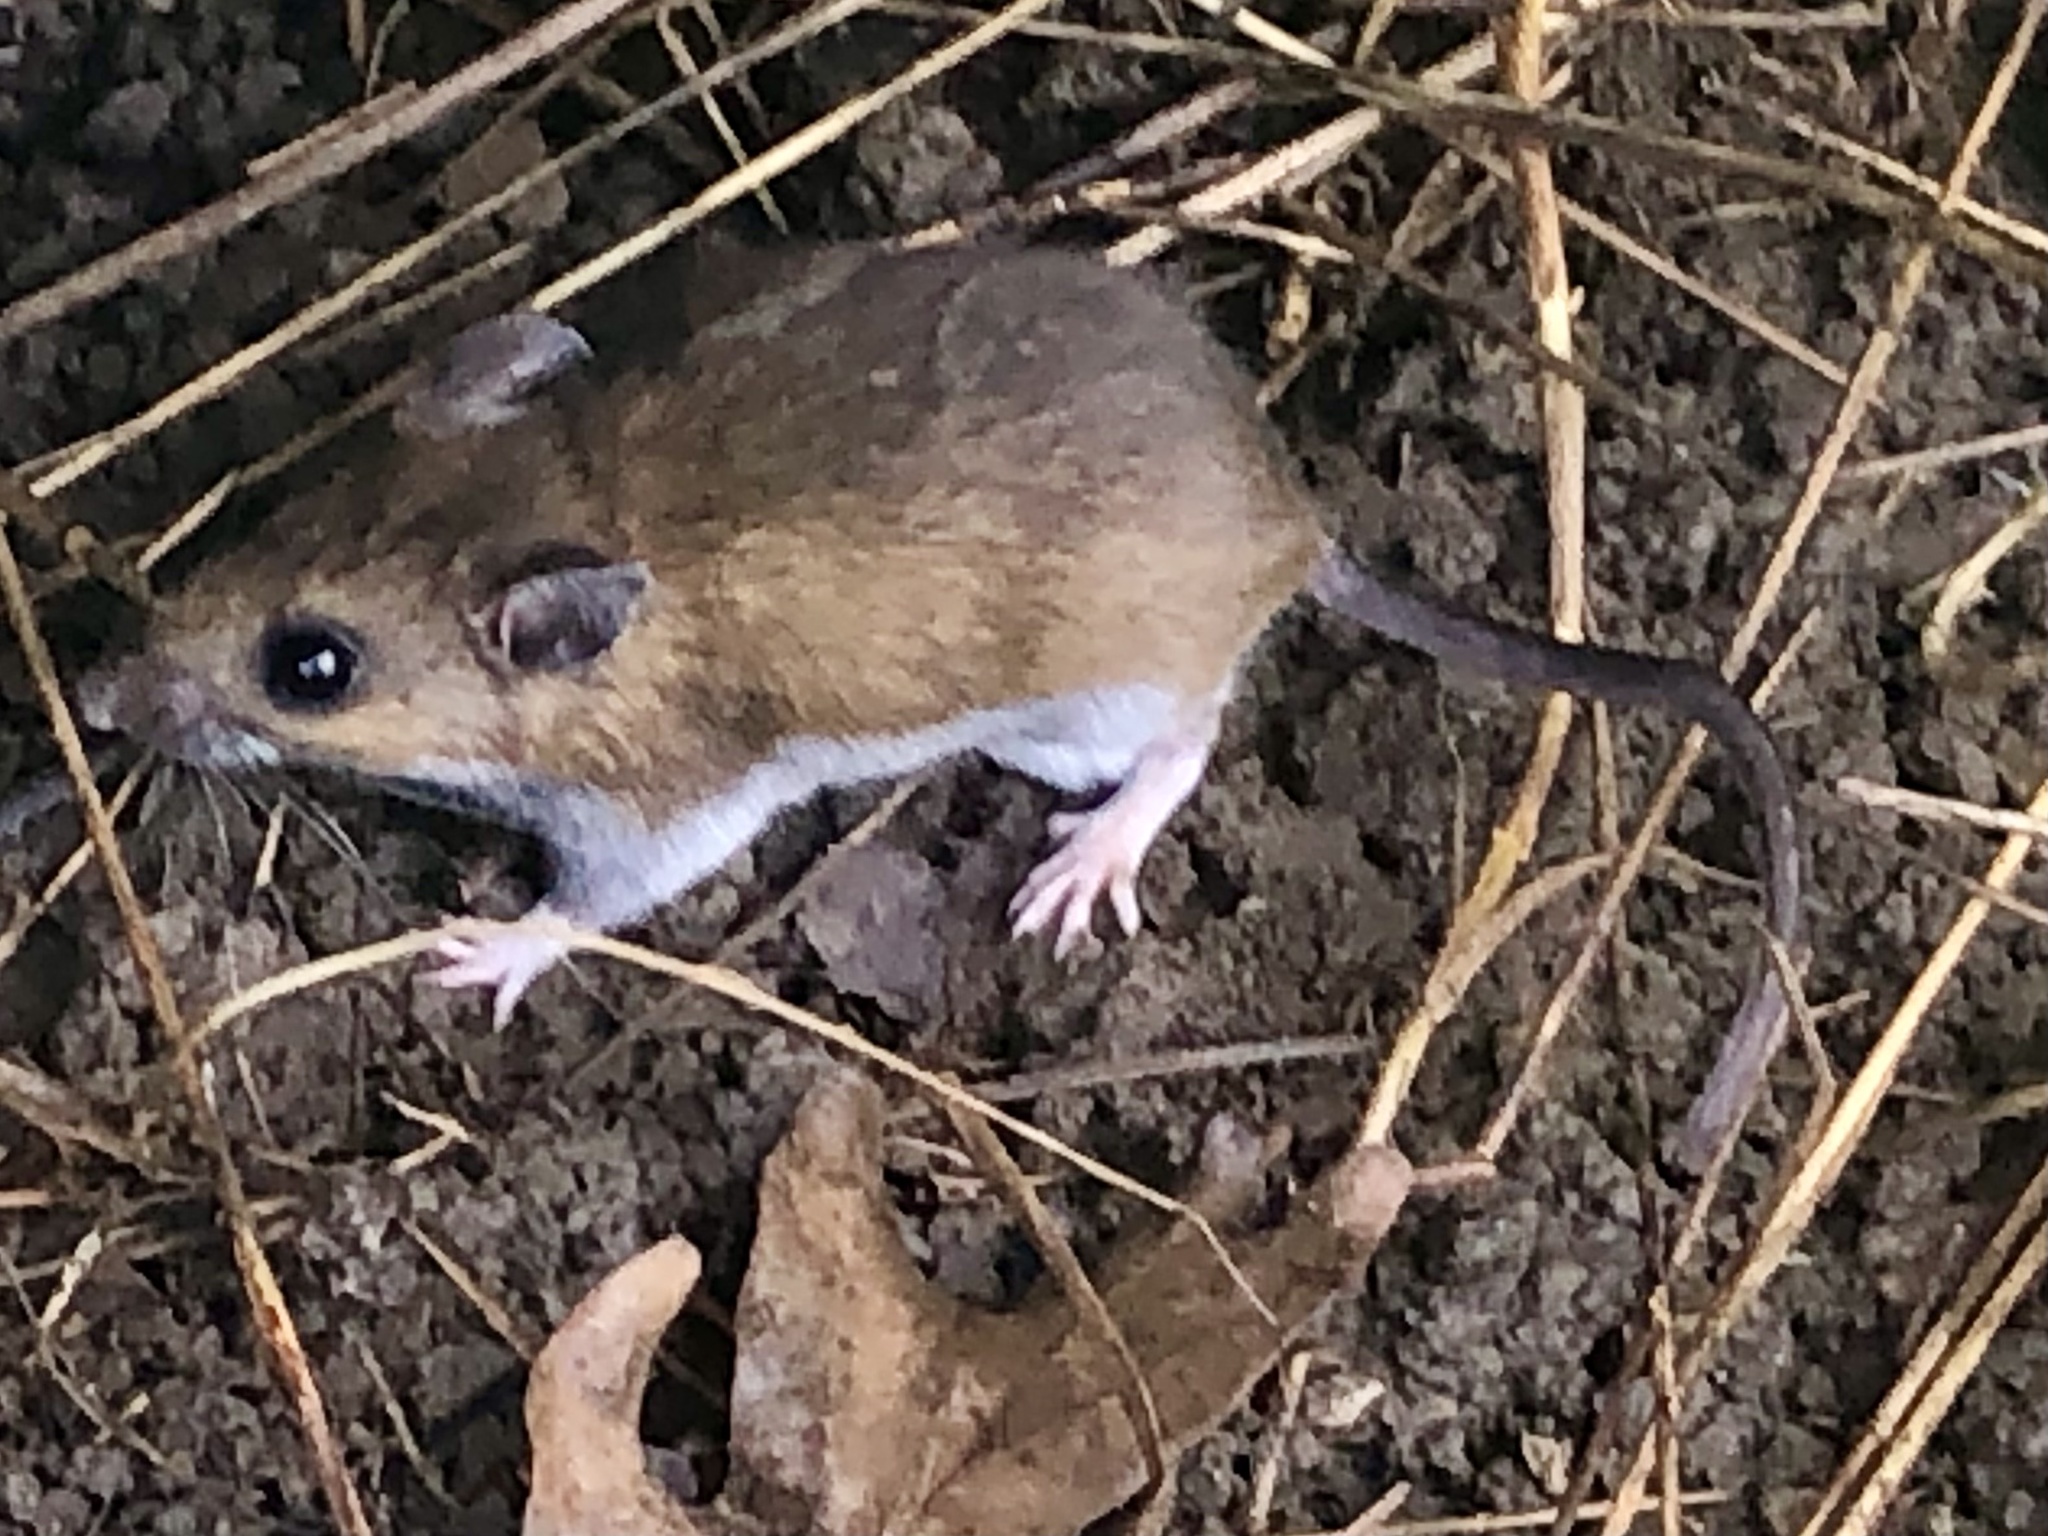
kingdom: Animalia
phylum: Chordata
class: Mammalia
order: Rodentia
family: Cricetidae
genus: Peromyscus
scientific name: Peromyscus leucopus
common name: White-footed deermouse
